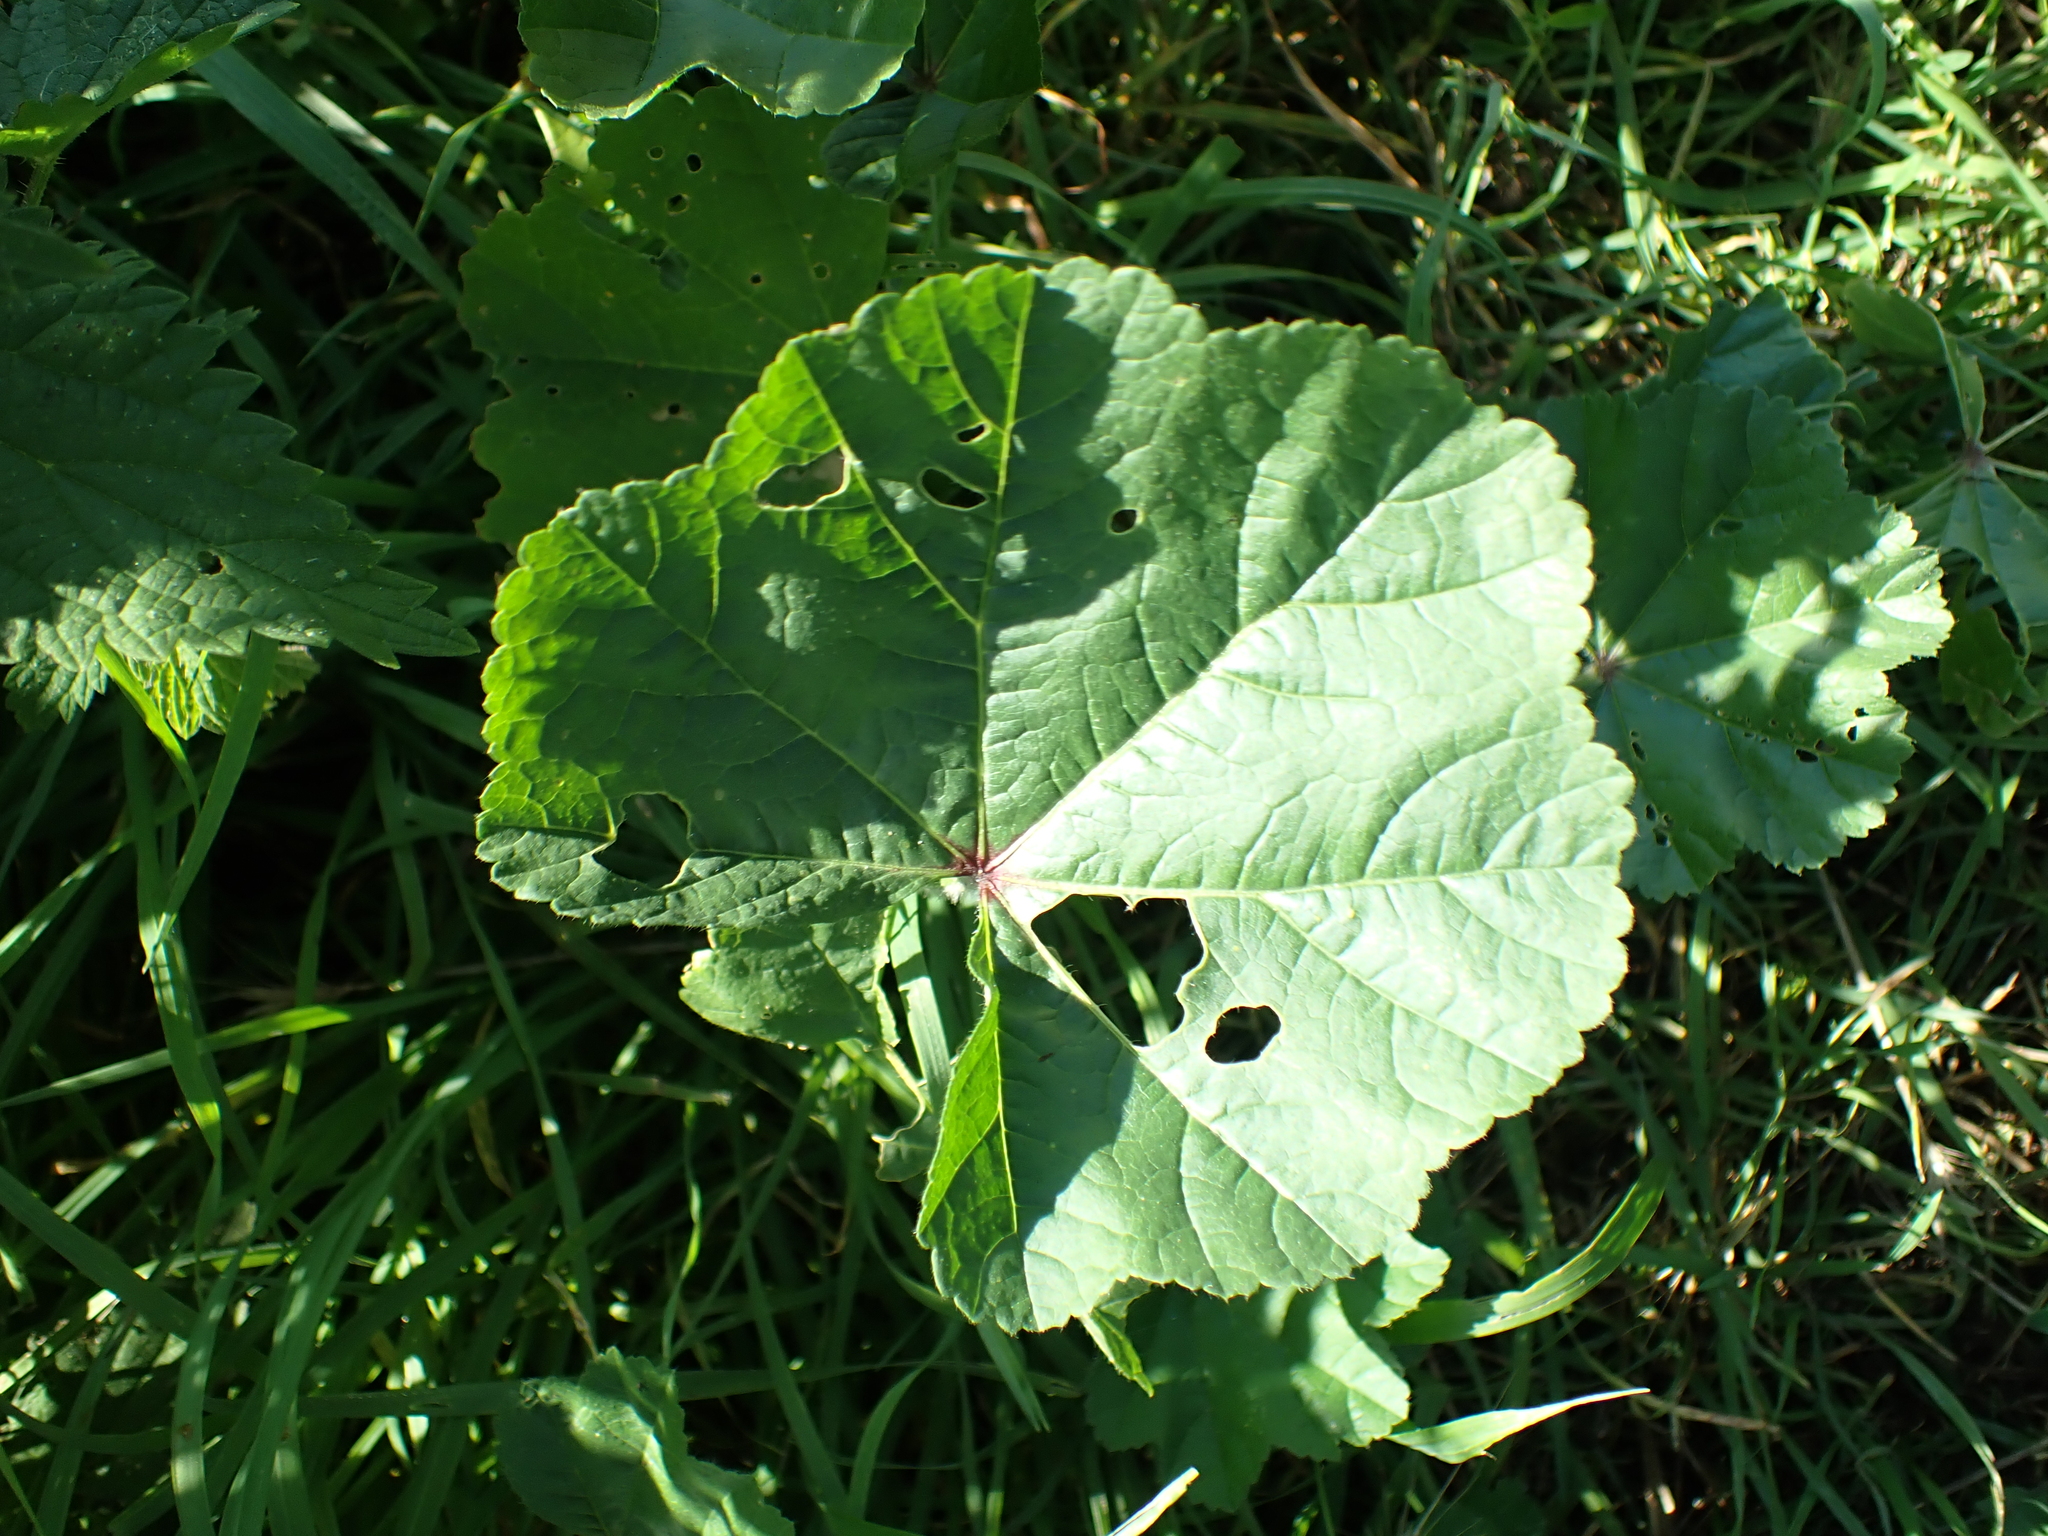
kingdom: Plantae
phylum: Tracheophyta
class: Magnoliopsida
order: Malvales
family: Malvaceae
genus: Malva
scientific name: Malva sylvestris
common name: Common mallow
